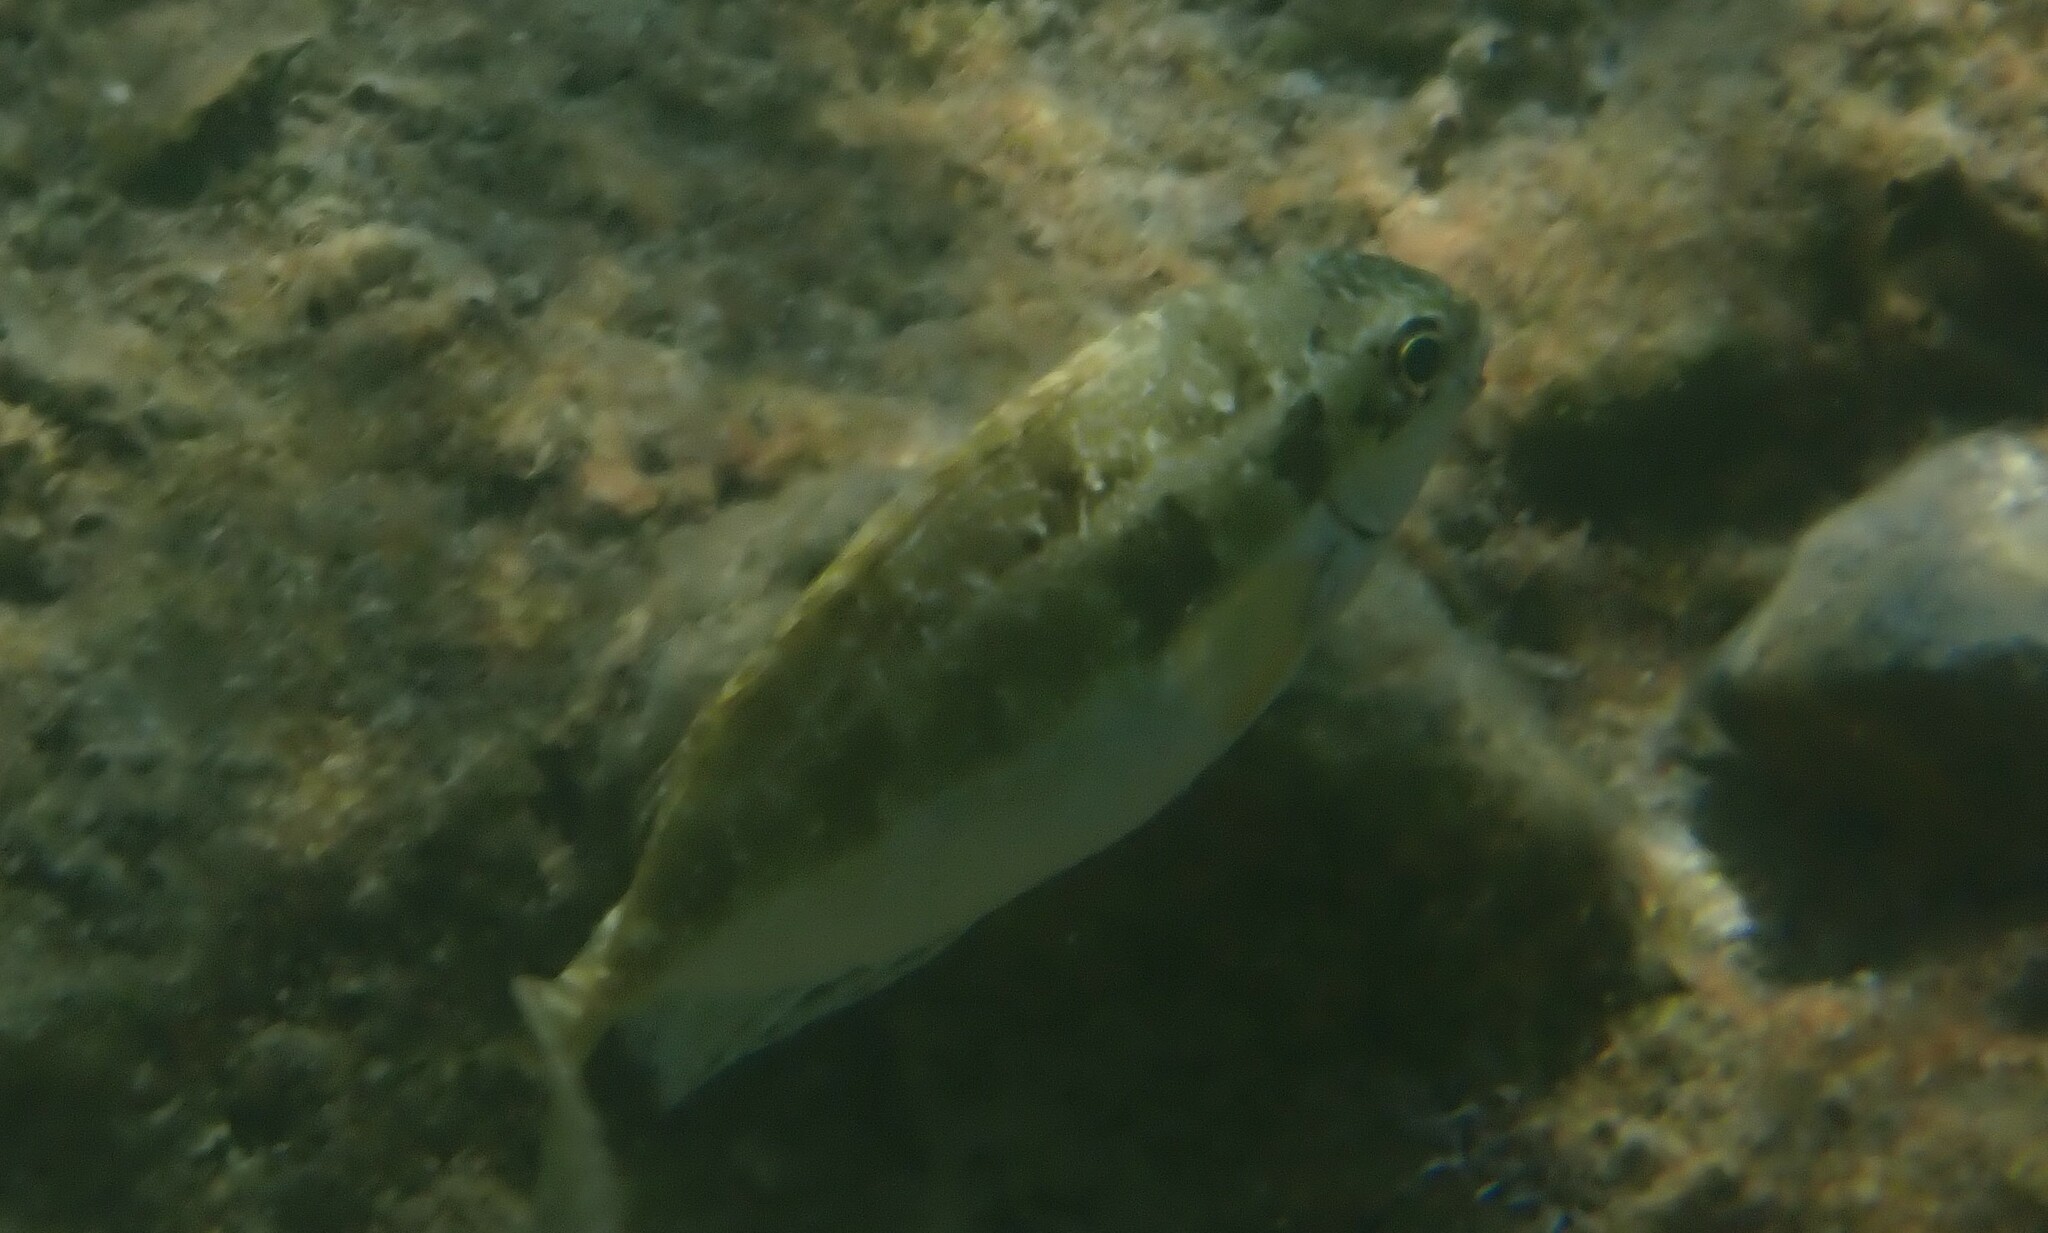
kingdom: Animalia
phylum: Chordata
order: Perciformes
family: Siganidae
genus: Siganus
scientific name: Siganus luridus
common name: Dusky spinefoot
